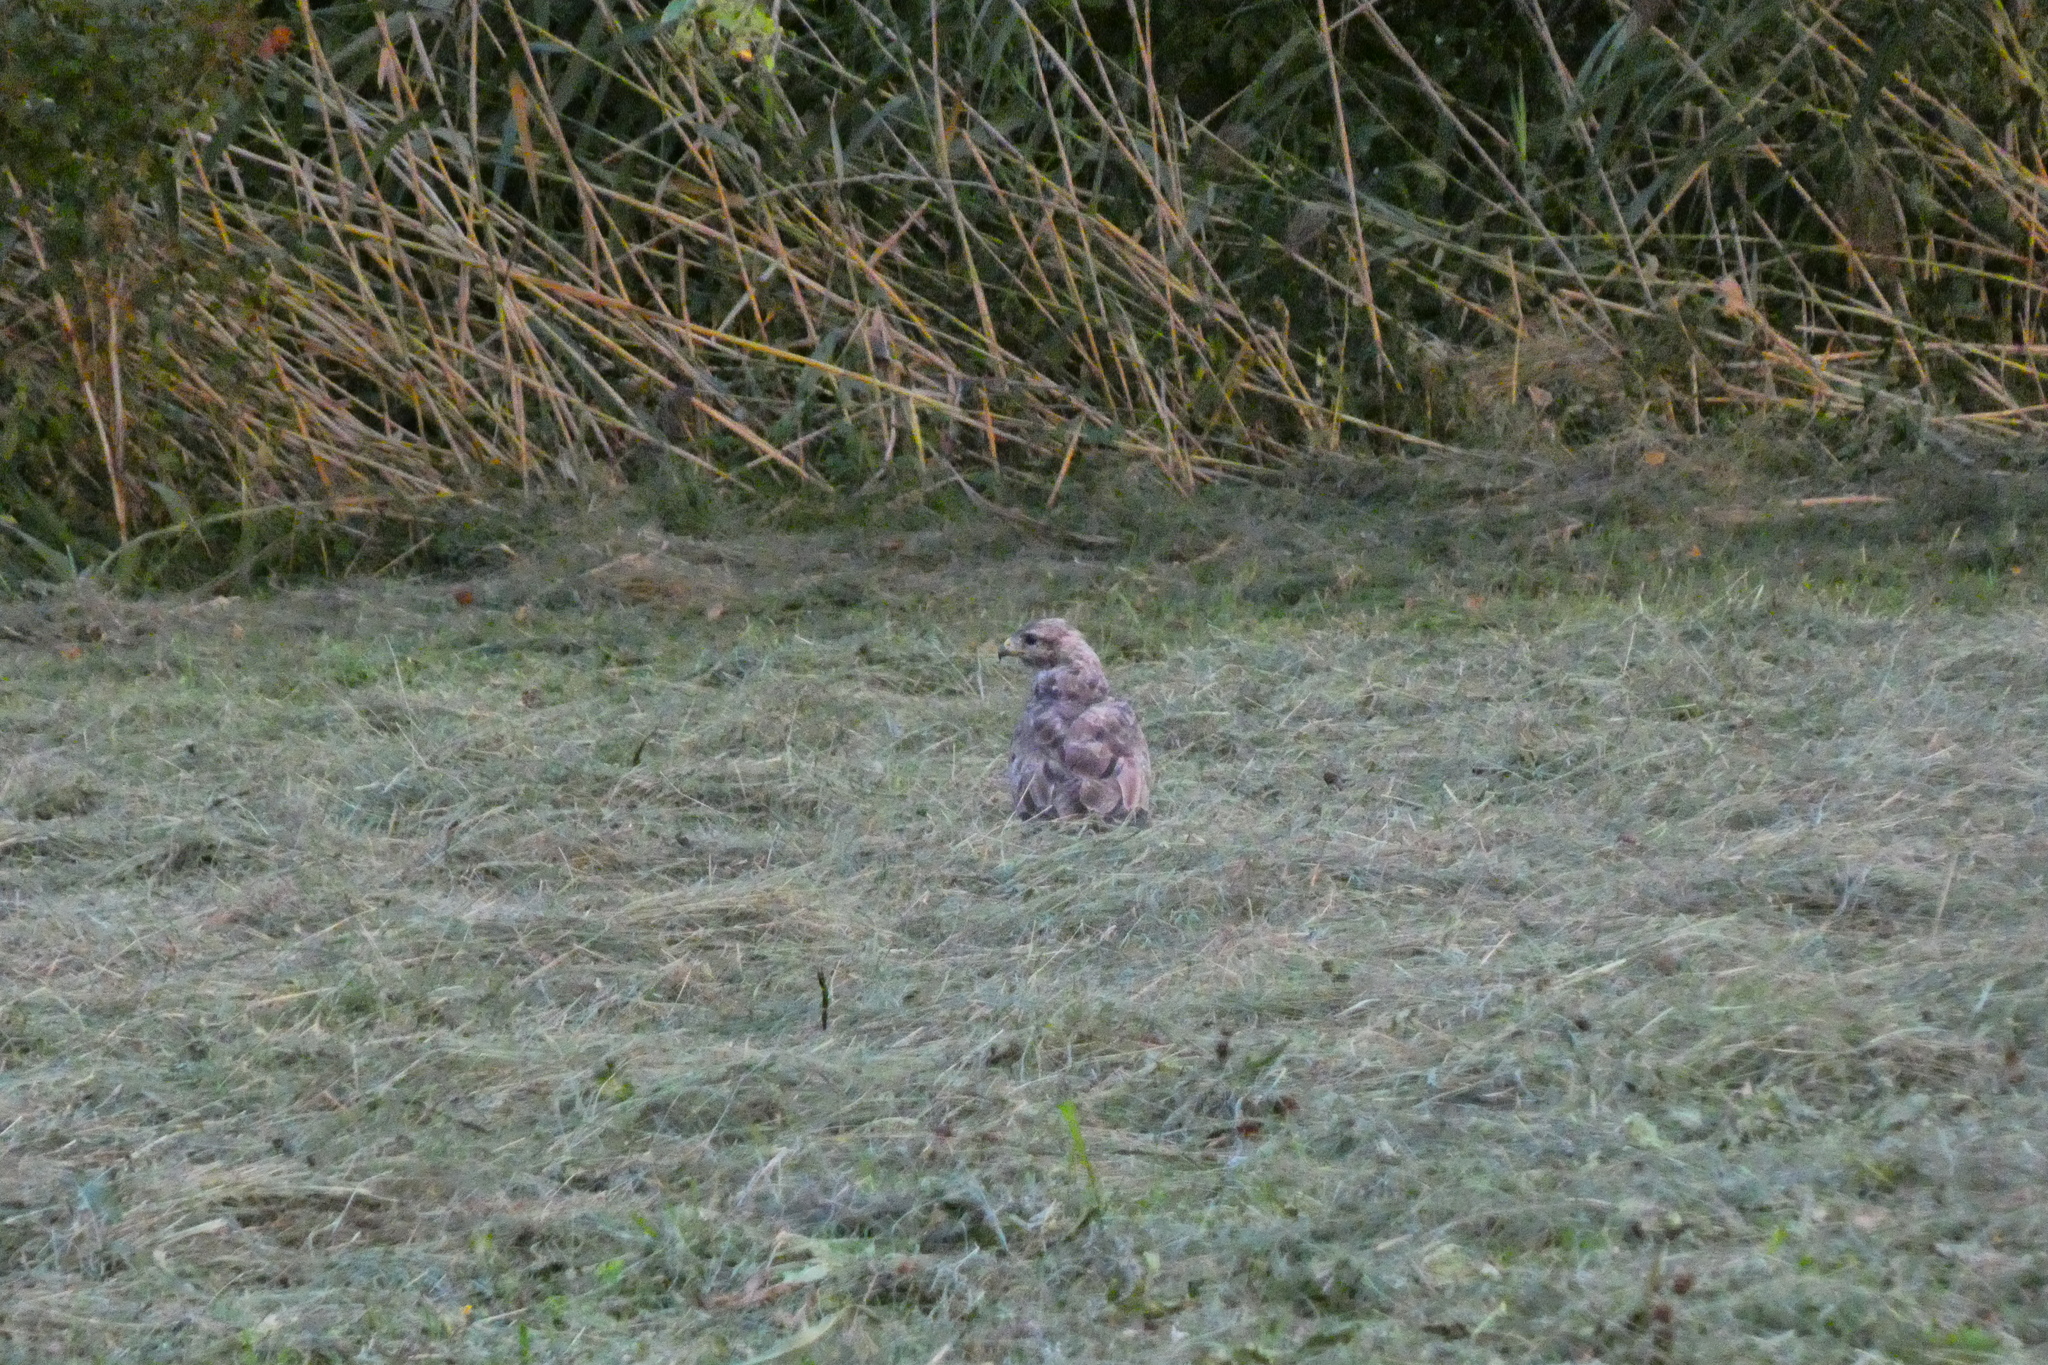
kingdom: Animalia
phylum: Chordata
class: Aves
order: Accipitriformes
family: Accipitridae
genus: Buteo
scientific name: Buteo buteo
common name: Common buzzard
